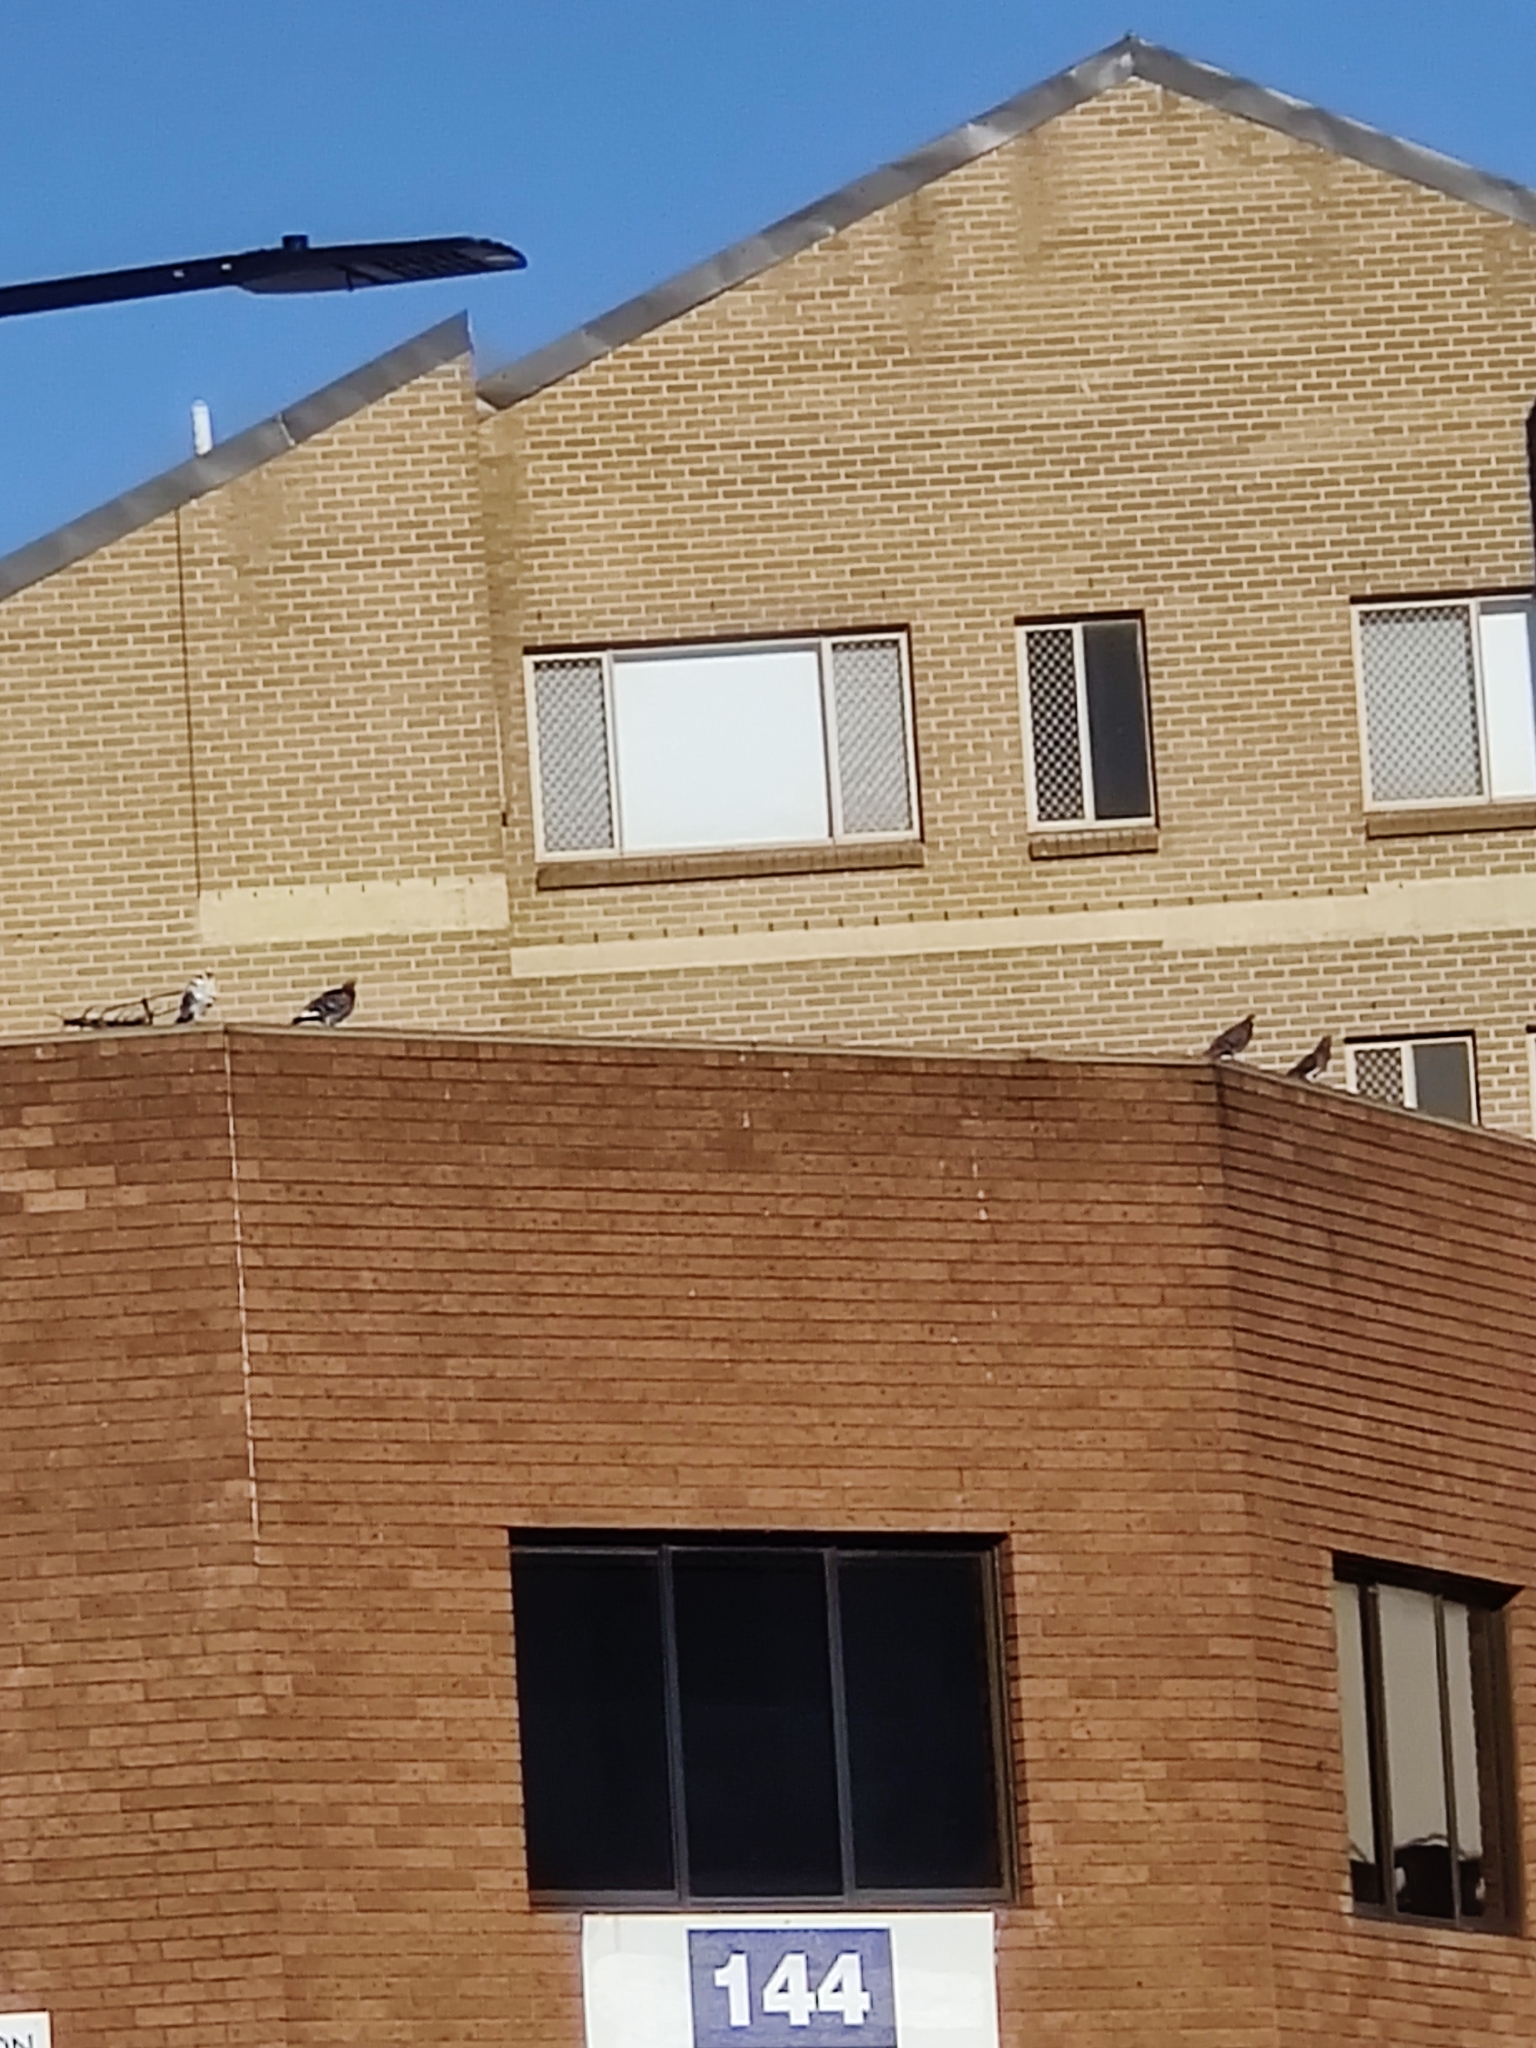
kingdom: Animalia
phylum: Chordata
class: Aves
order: Columbiformes
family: Columbidae
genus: Columba
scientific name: Columba livia
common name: Rock pigeon
